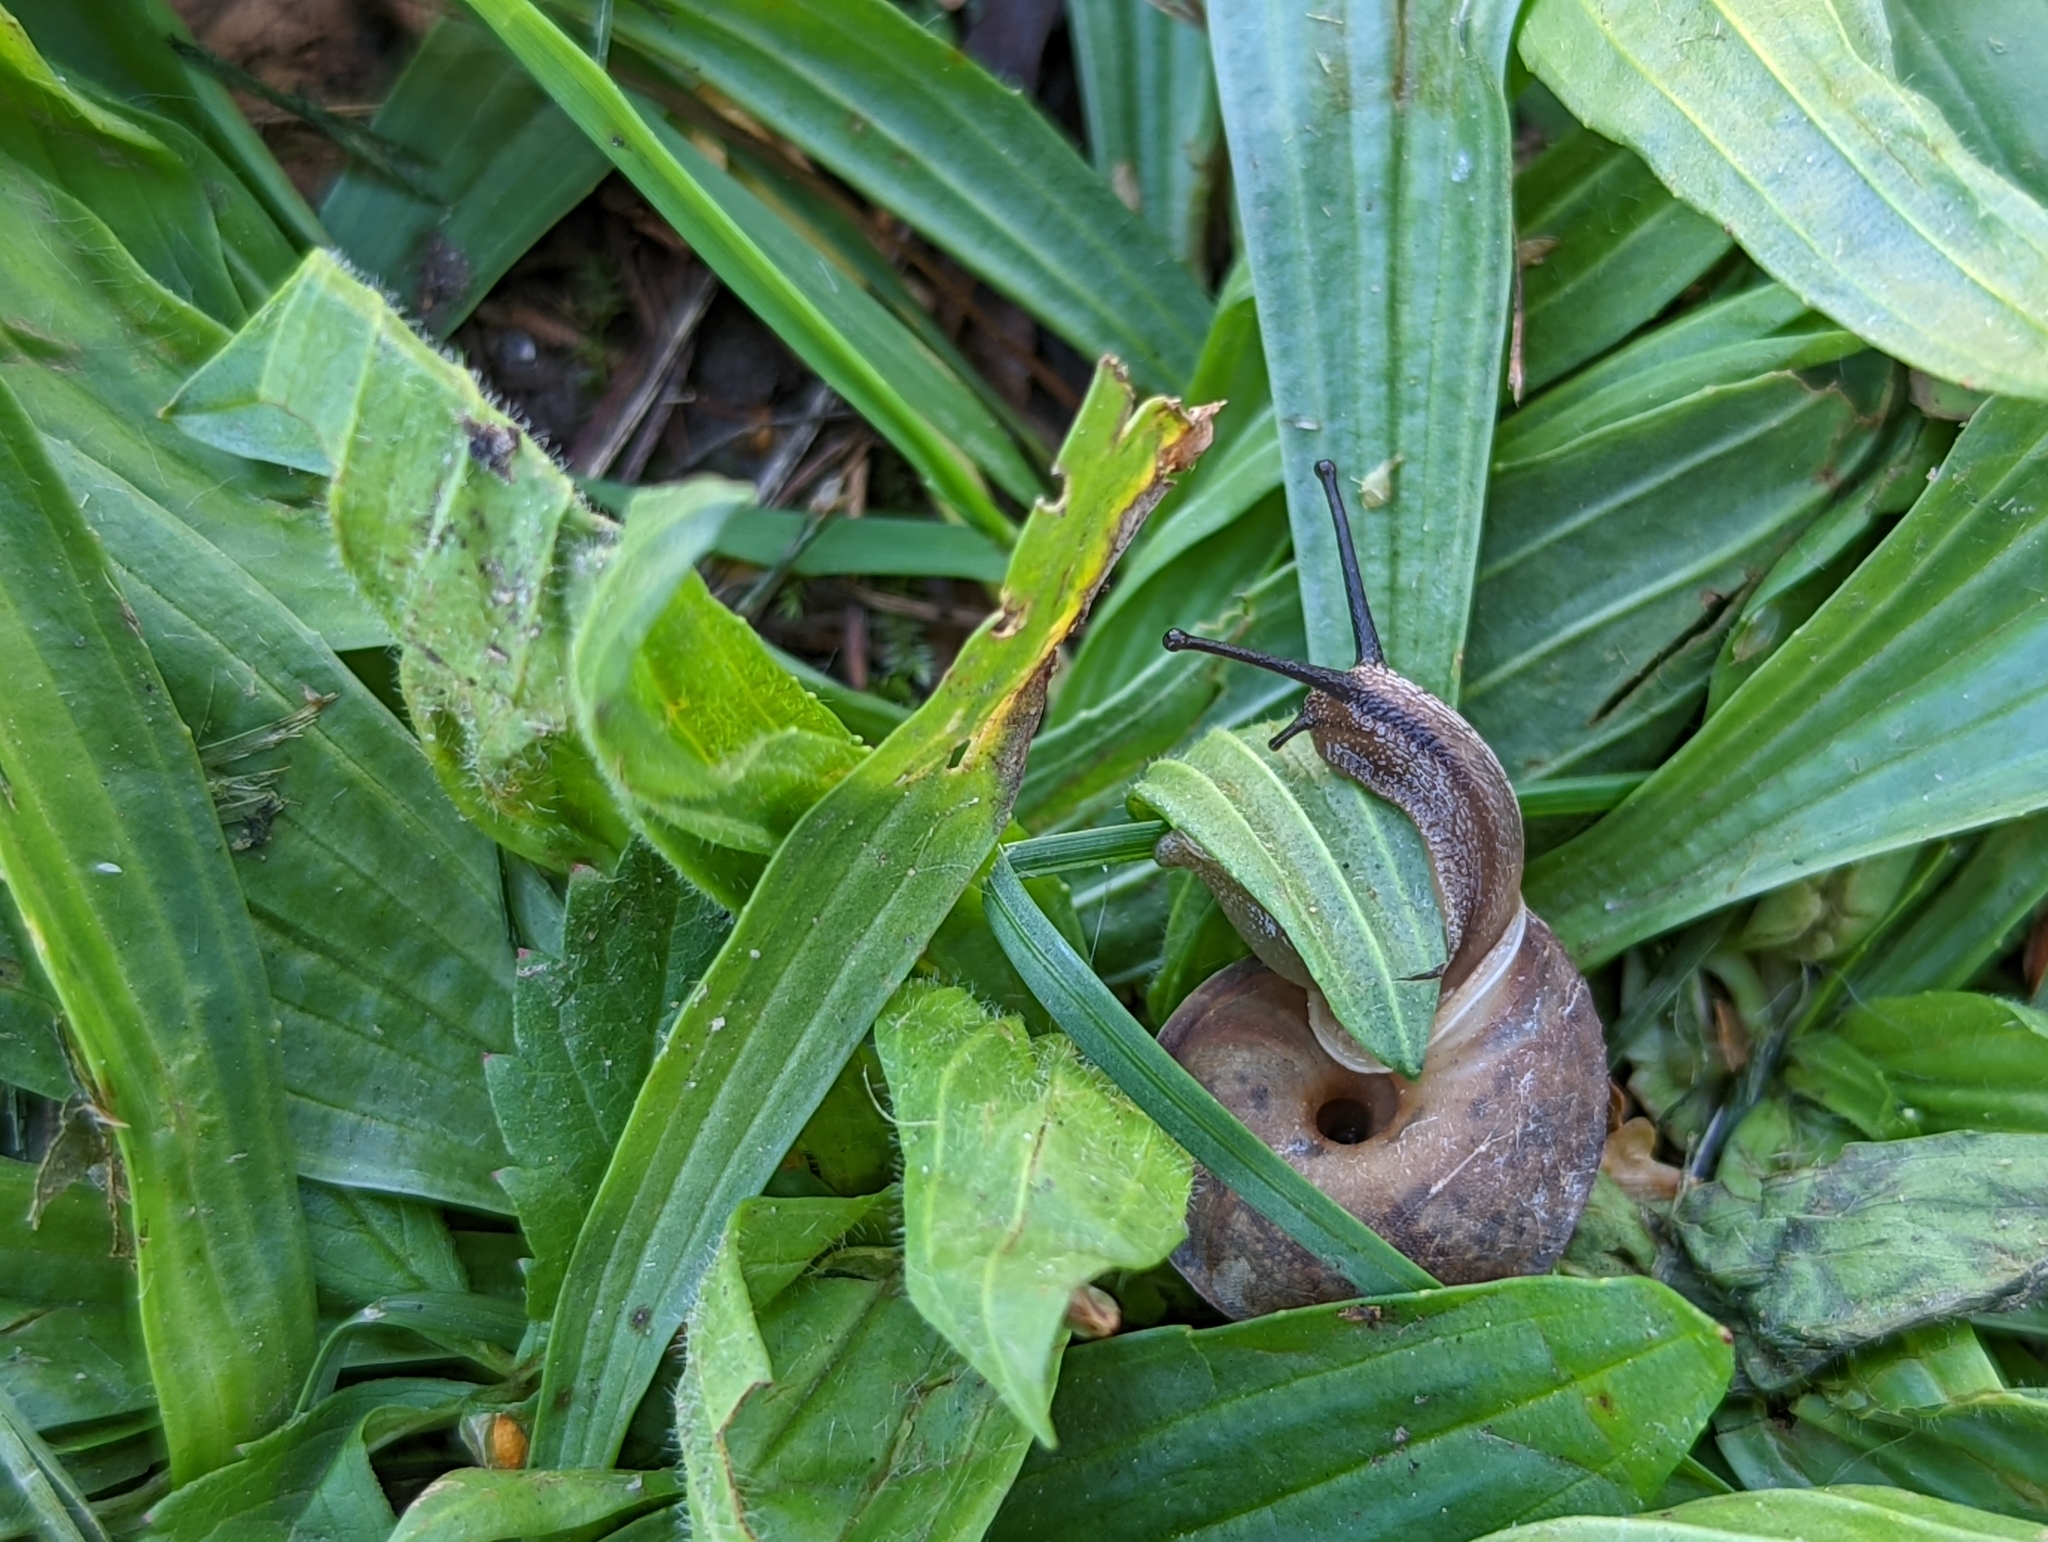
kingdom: Animalia
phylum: Mollusca
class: Gastropoda
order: Stylommatophora
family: Helicidae
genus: Helicigona
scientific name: Helicigona lapicida
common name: Lapidary snail
